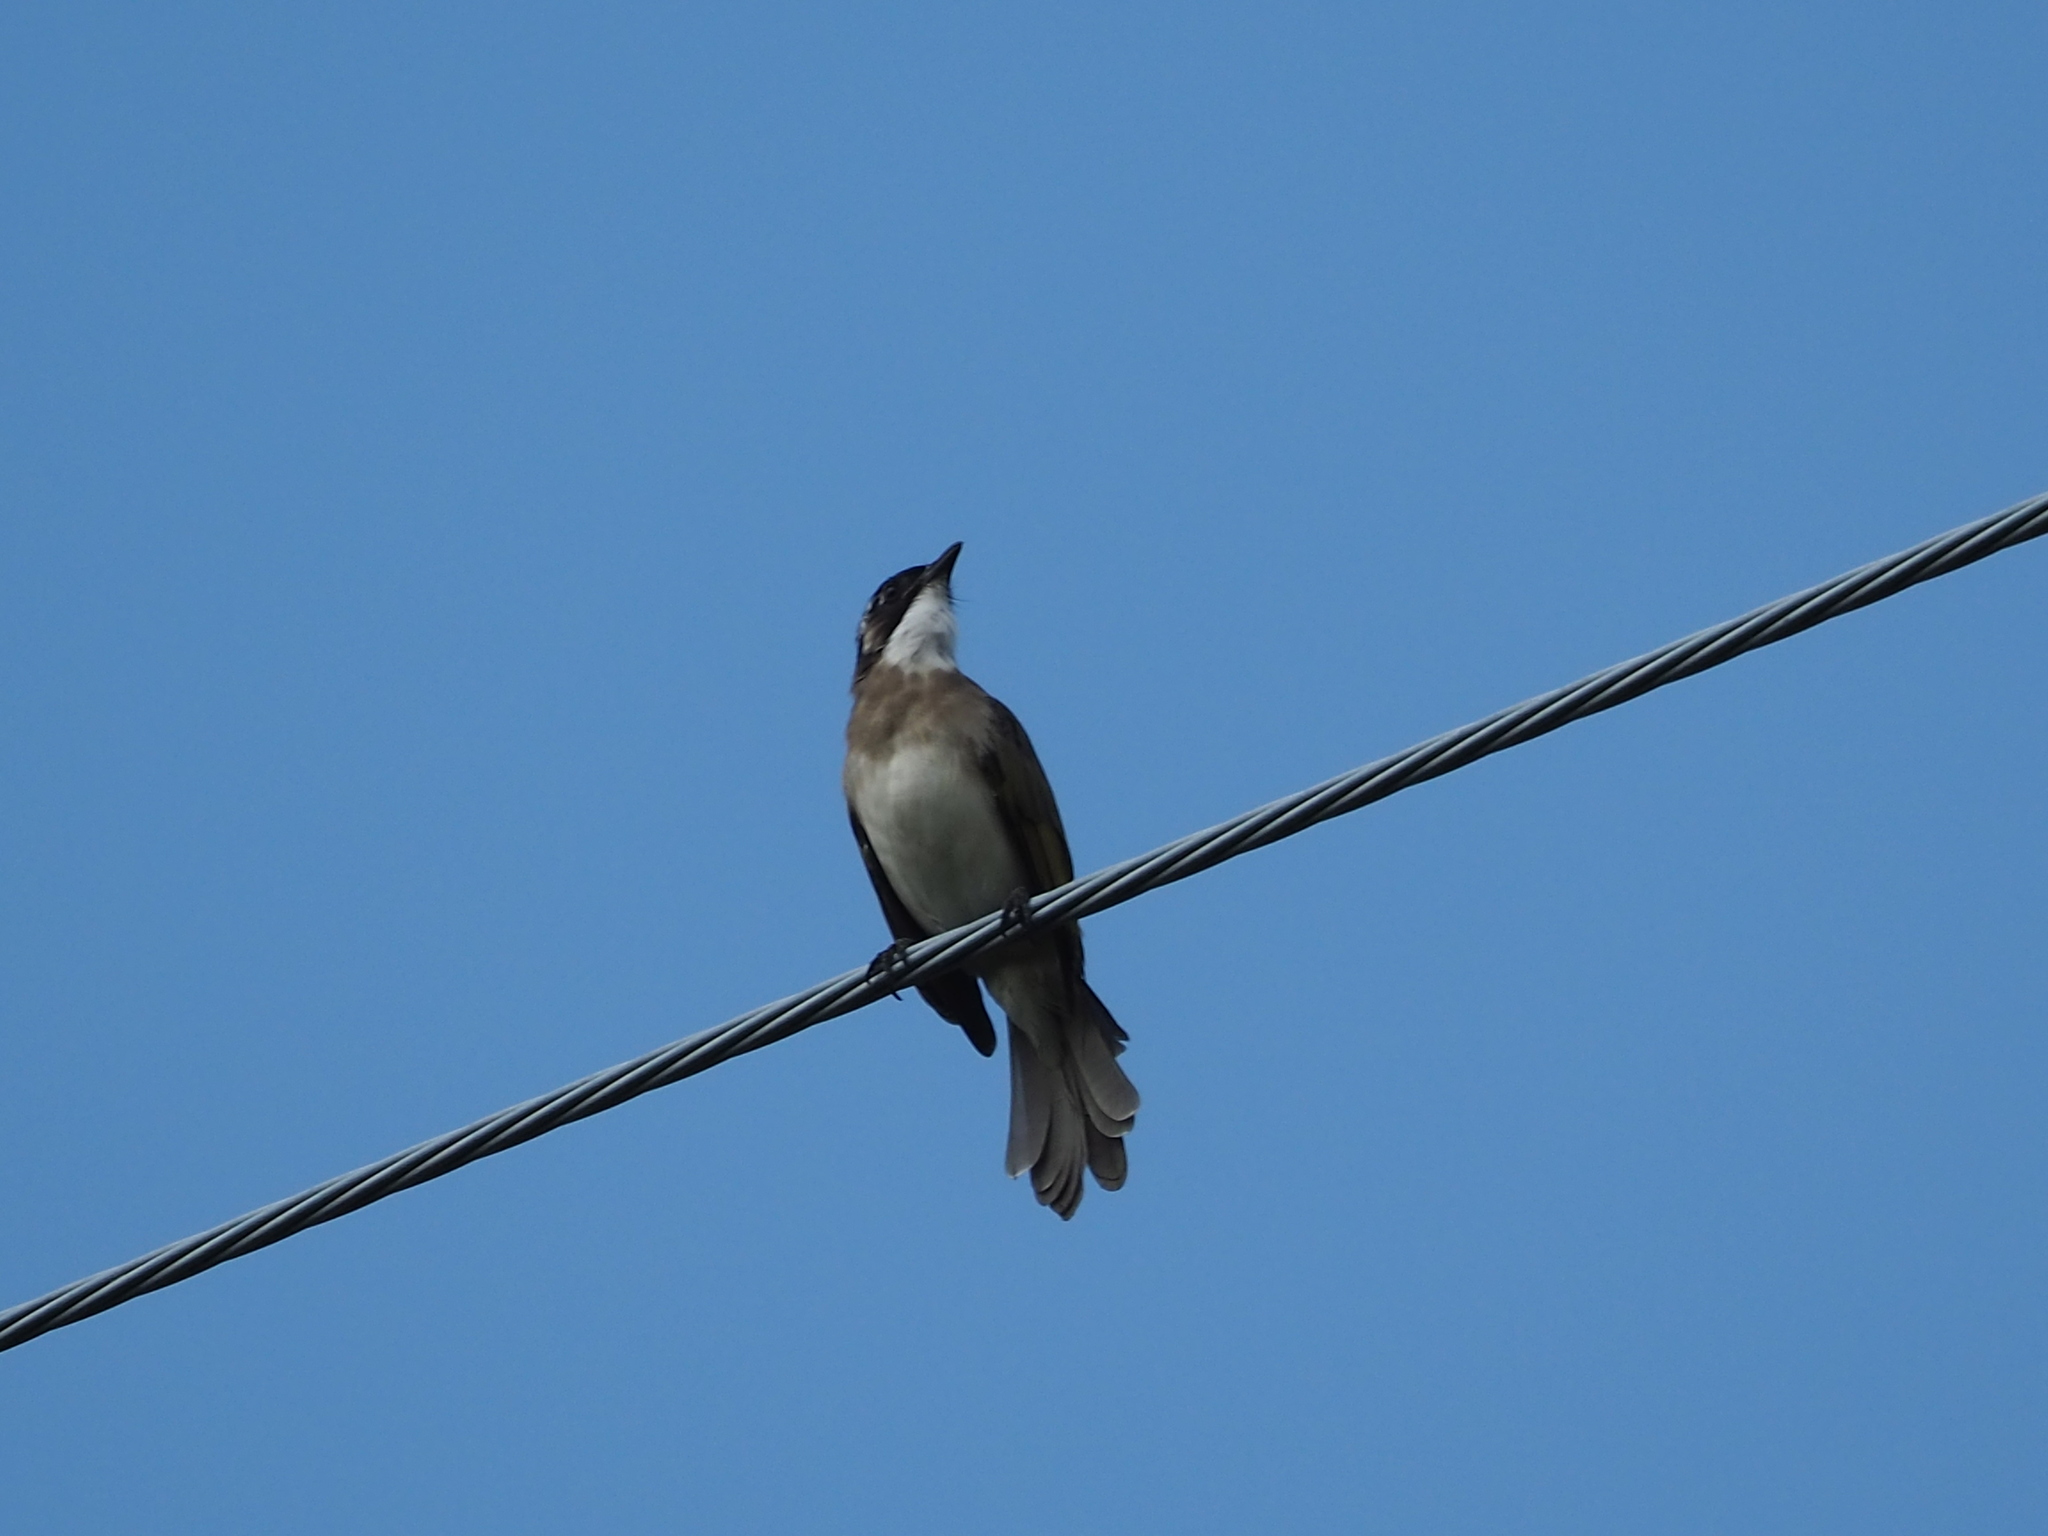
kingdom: Animalia
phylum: Chordata
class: Aves
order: Passeriformes
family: Pycnonotidae
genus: Pycnonotus
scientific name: Pycnonotus sinensis
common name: Light-vented bulbul
